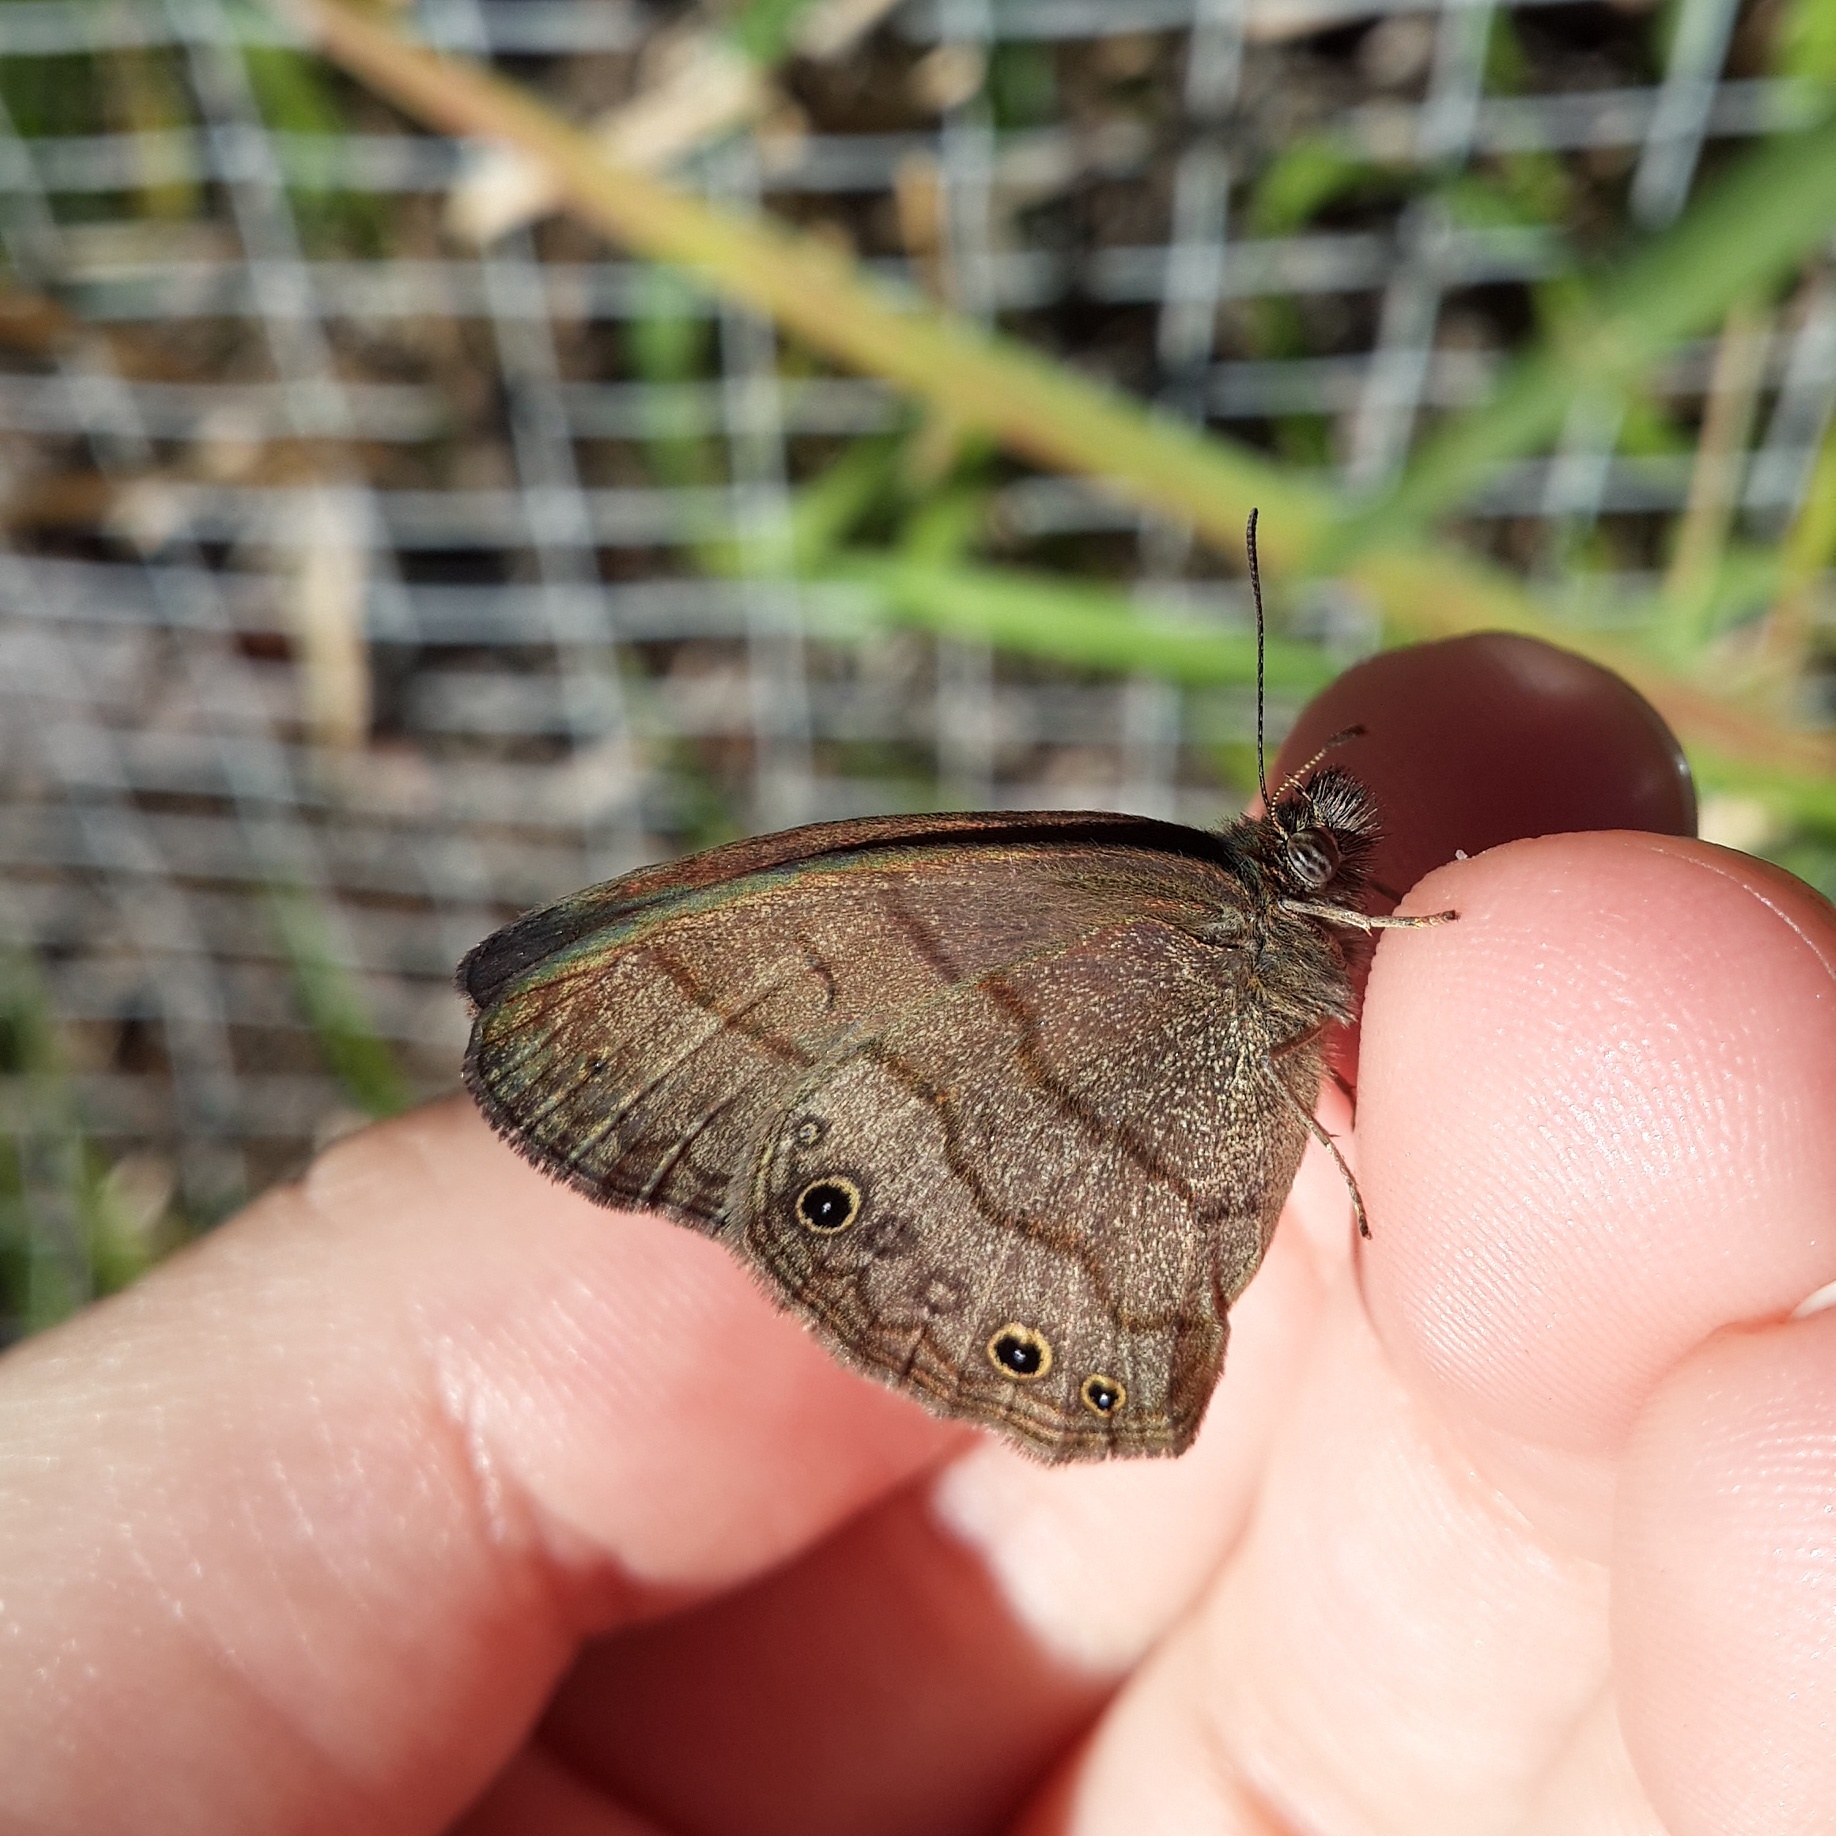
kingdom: Animalia
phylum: Arthropoda
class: Insecta
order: Lepidoptera
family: Nymphalidae
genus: Hermeuptychia
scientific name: Hermeuptychia hermes
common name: Hermes satyr
